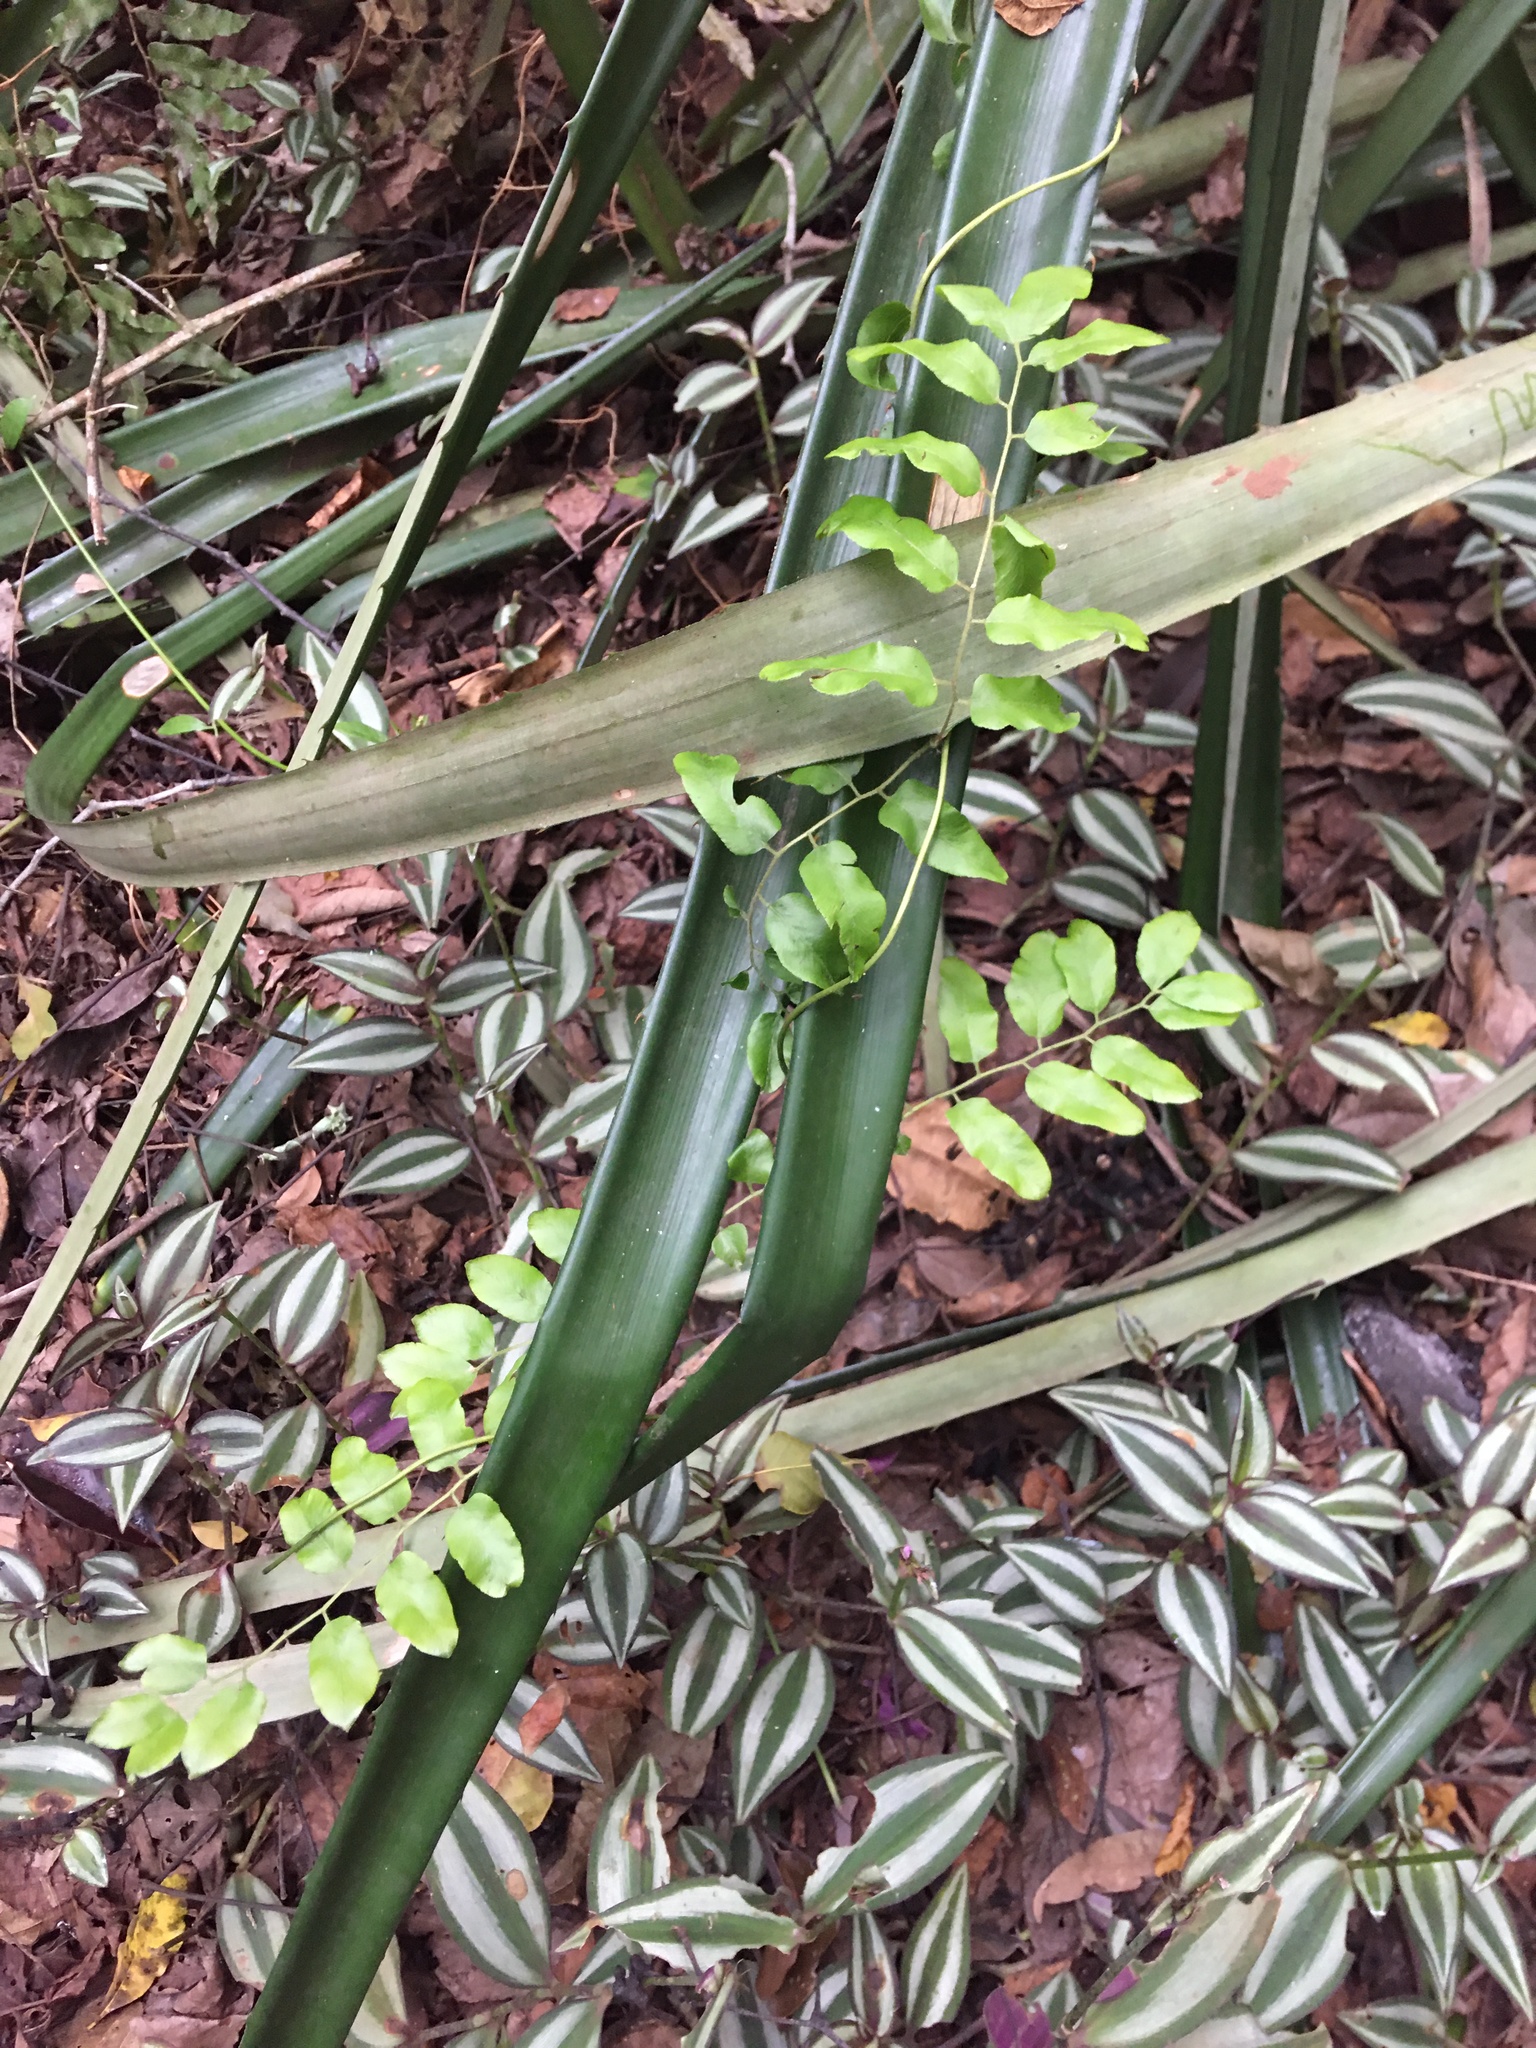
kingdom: Plantae
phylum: Tracheophyta
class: Polypodiopsida
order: Schizaeales
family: Lygodiaceae
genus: Lygodium
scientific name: Lygodium volubile
